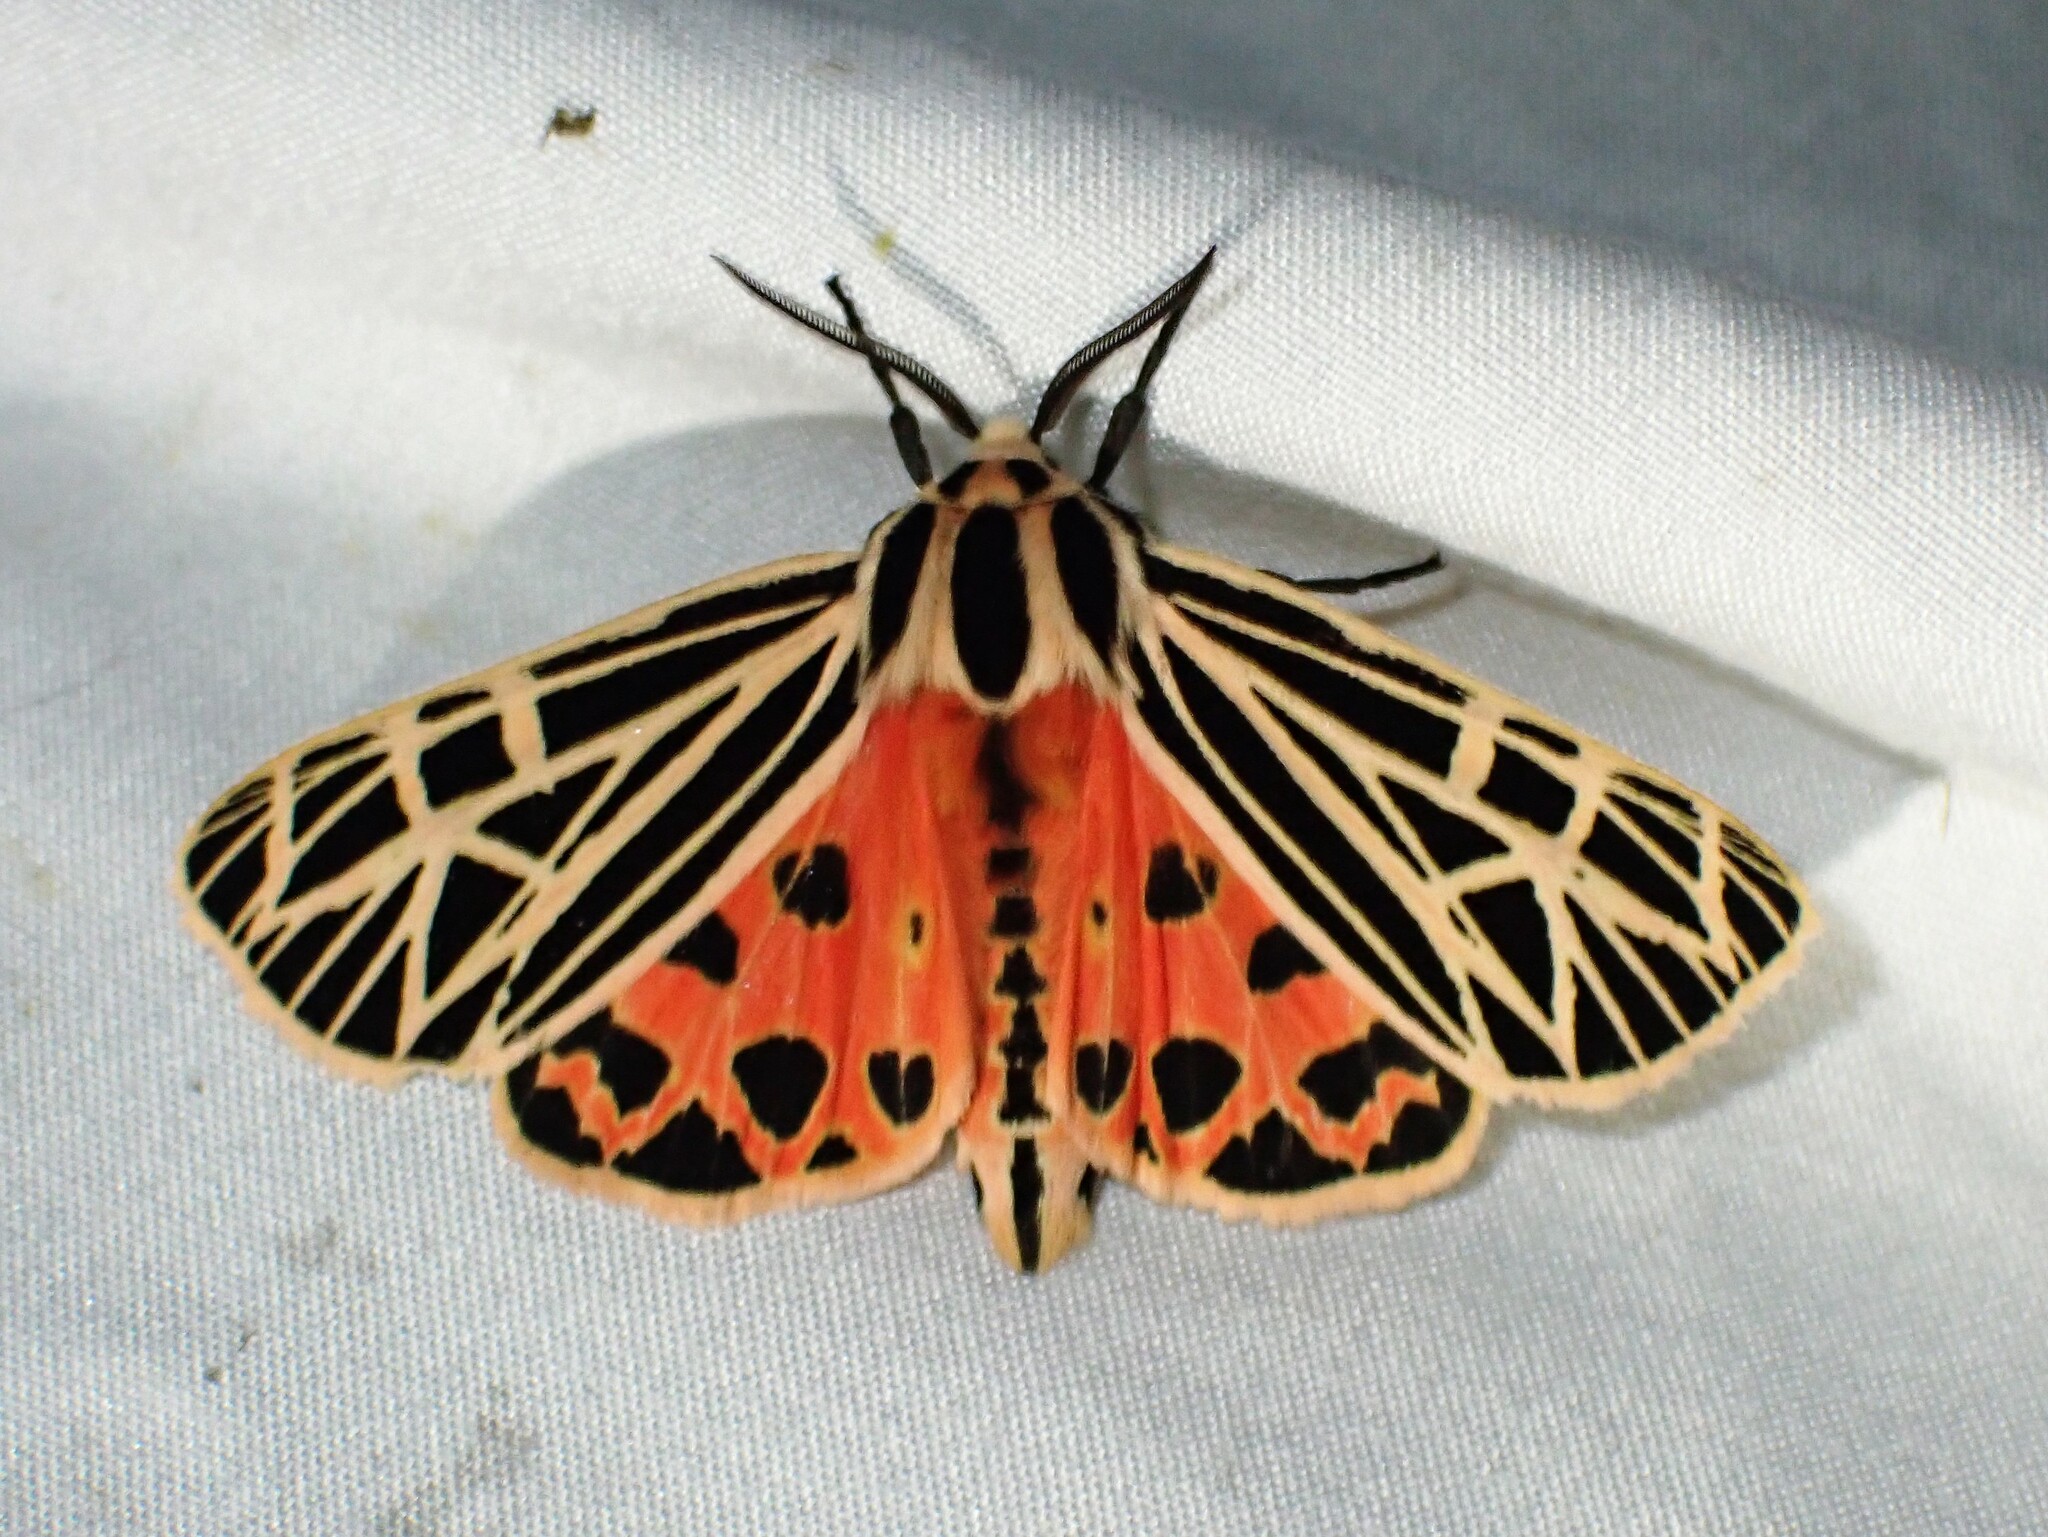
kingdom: Animalia
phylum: Arthropoda
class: Insecta
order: Lepidoptera
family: Erebidae
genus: Grammia
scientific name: Grammia virgo
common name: Virgin tiger moth
